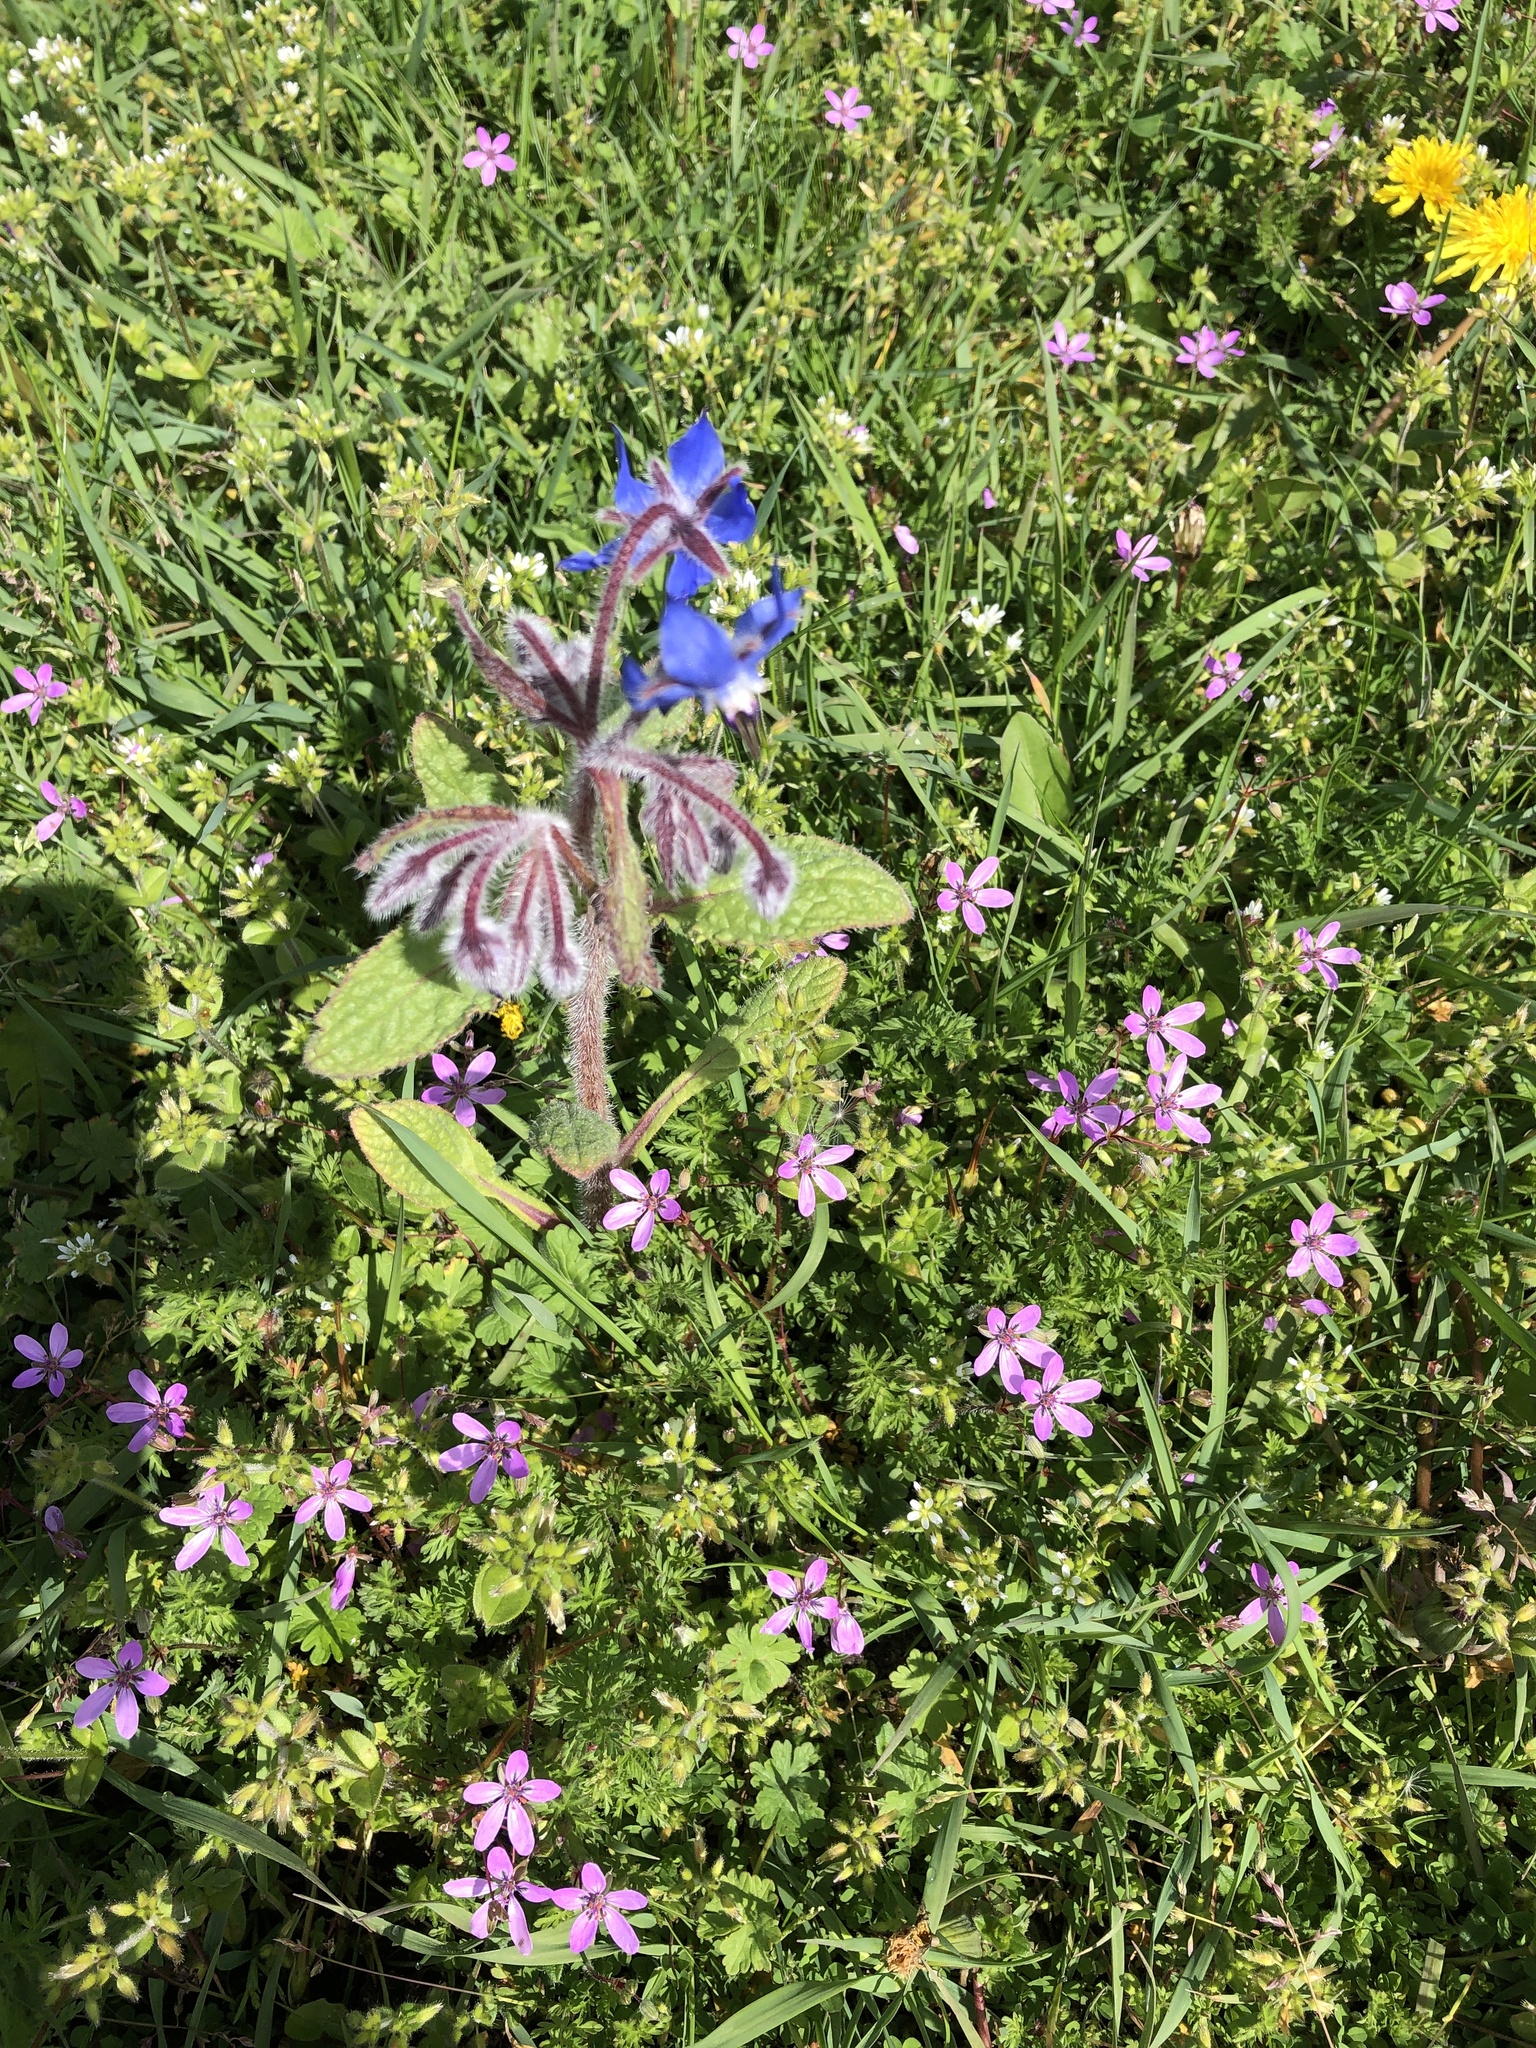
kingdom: Plantae
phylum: Tracheophyta
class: Magnoliopsida
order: Boraginales
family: Boraginaceae
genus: Borago
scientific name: Borago officinalis
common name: Borage
